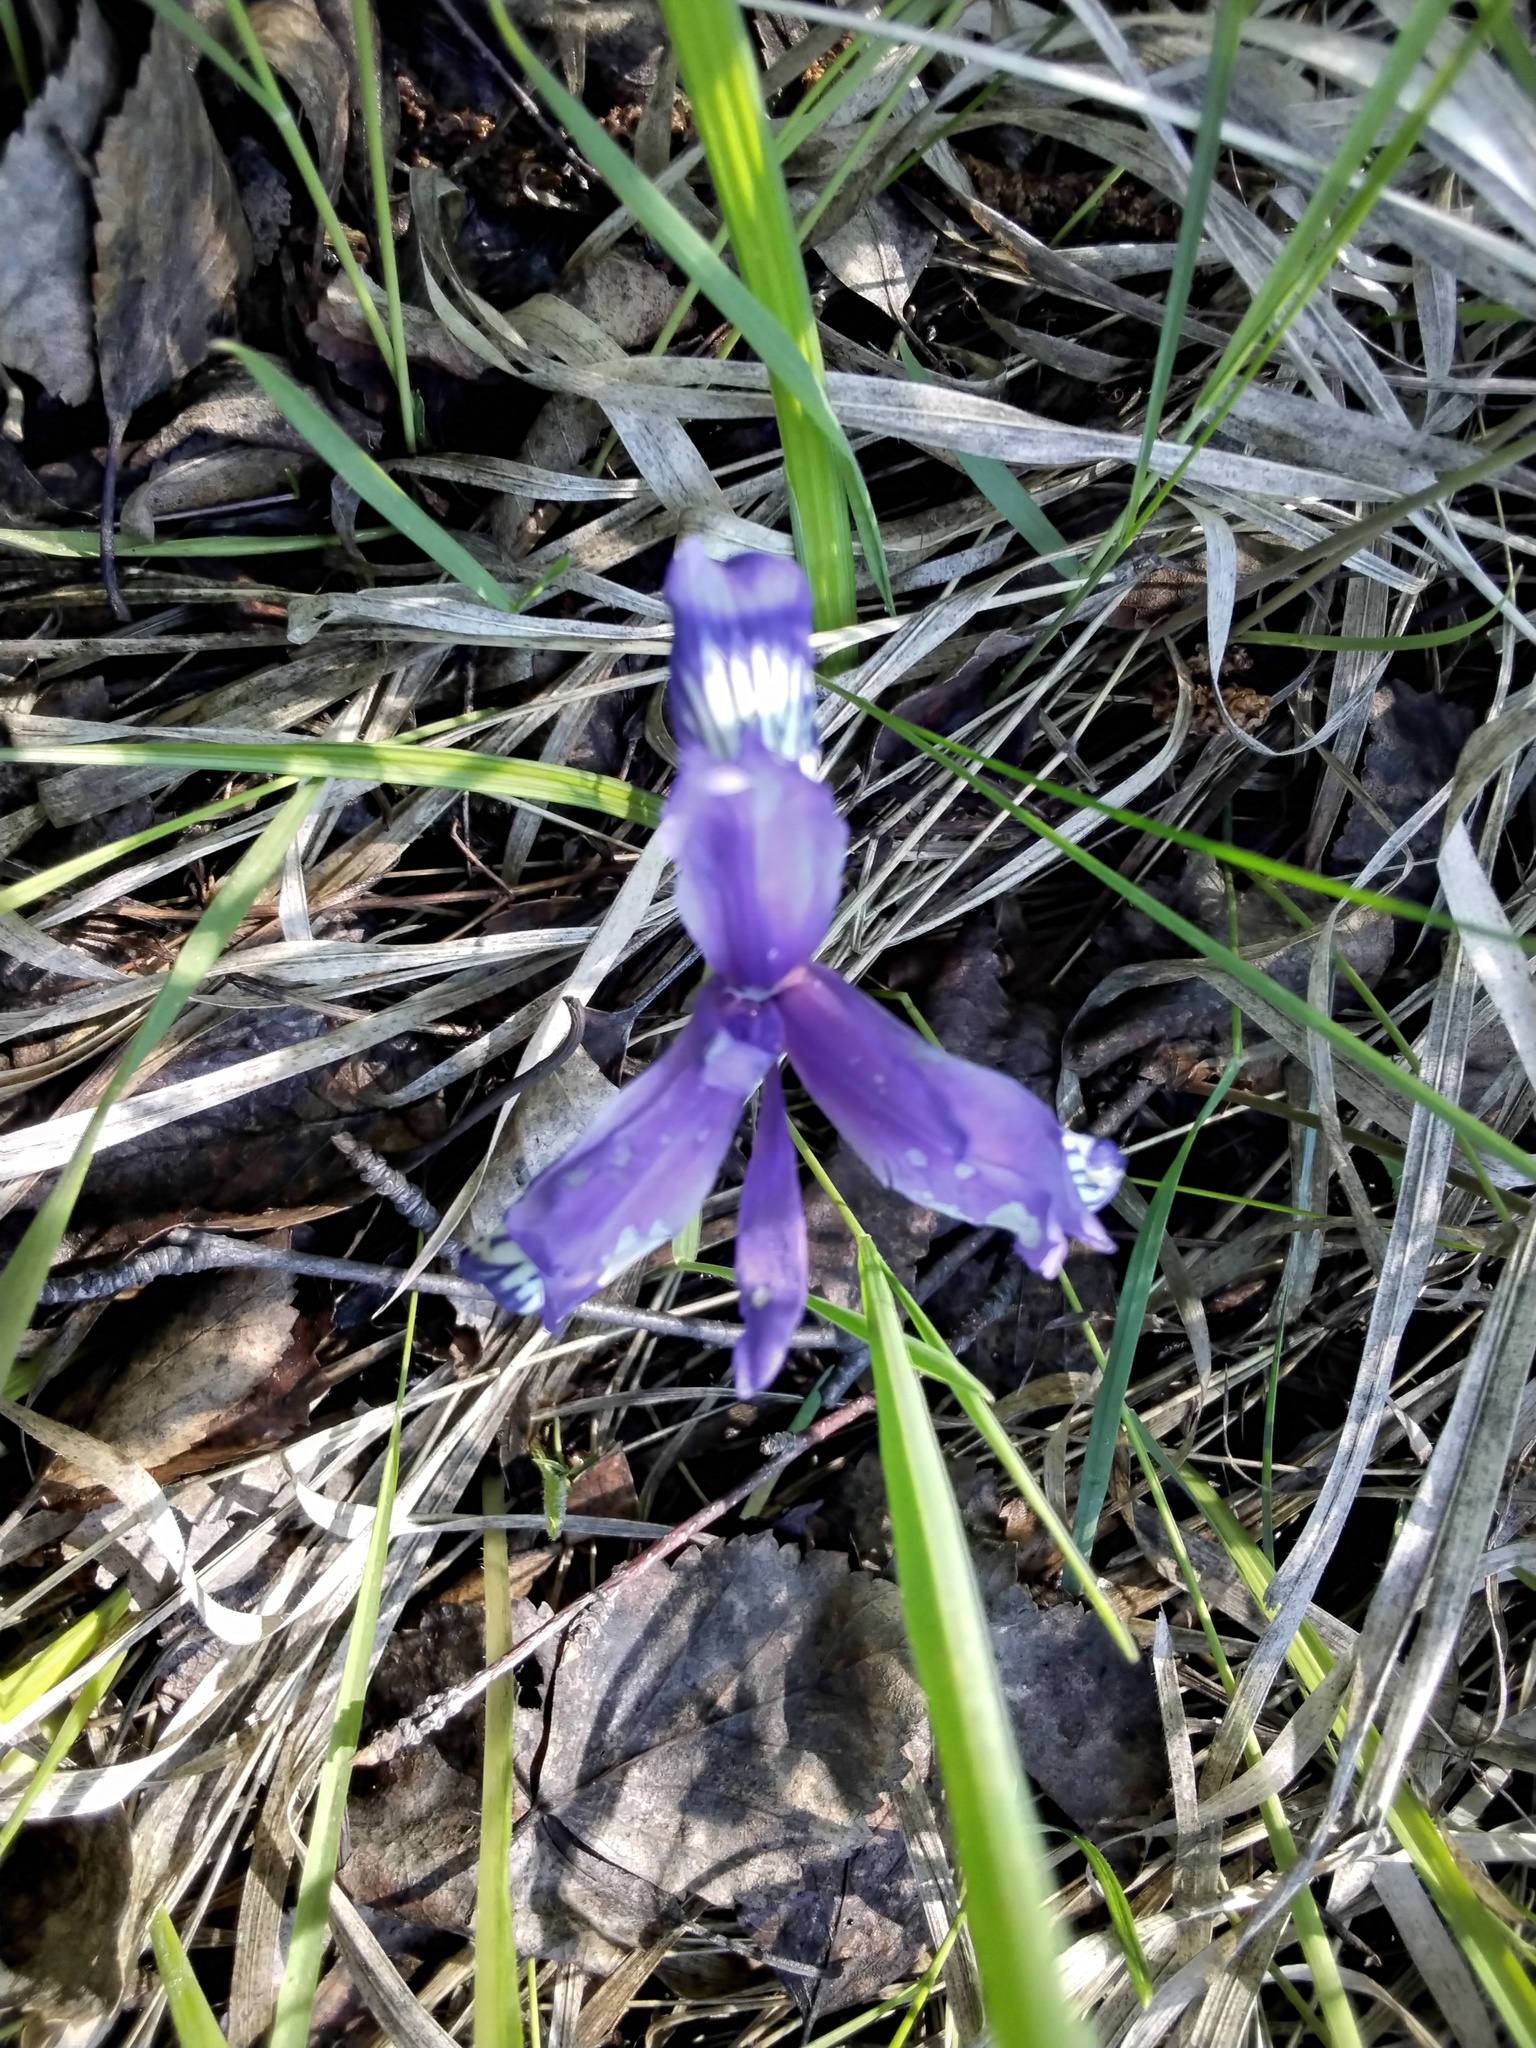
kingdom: Plantae
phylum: Tracheophyta
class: Liliopsida
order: Asparagales
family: Iridaceae
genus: Iris
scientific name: Iris ruthenica
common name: Purple-bract iris
